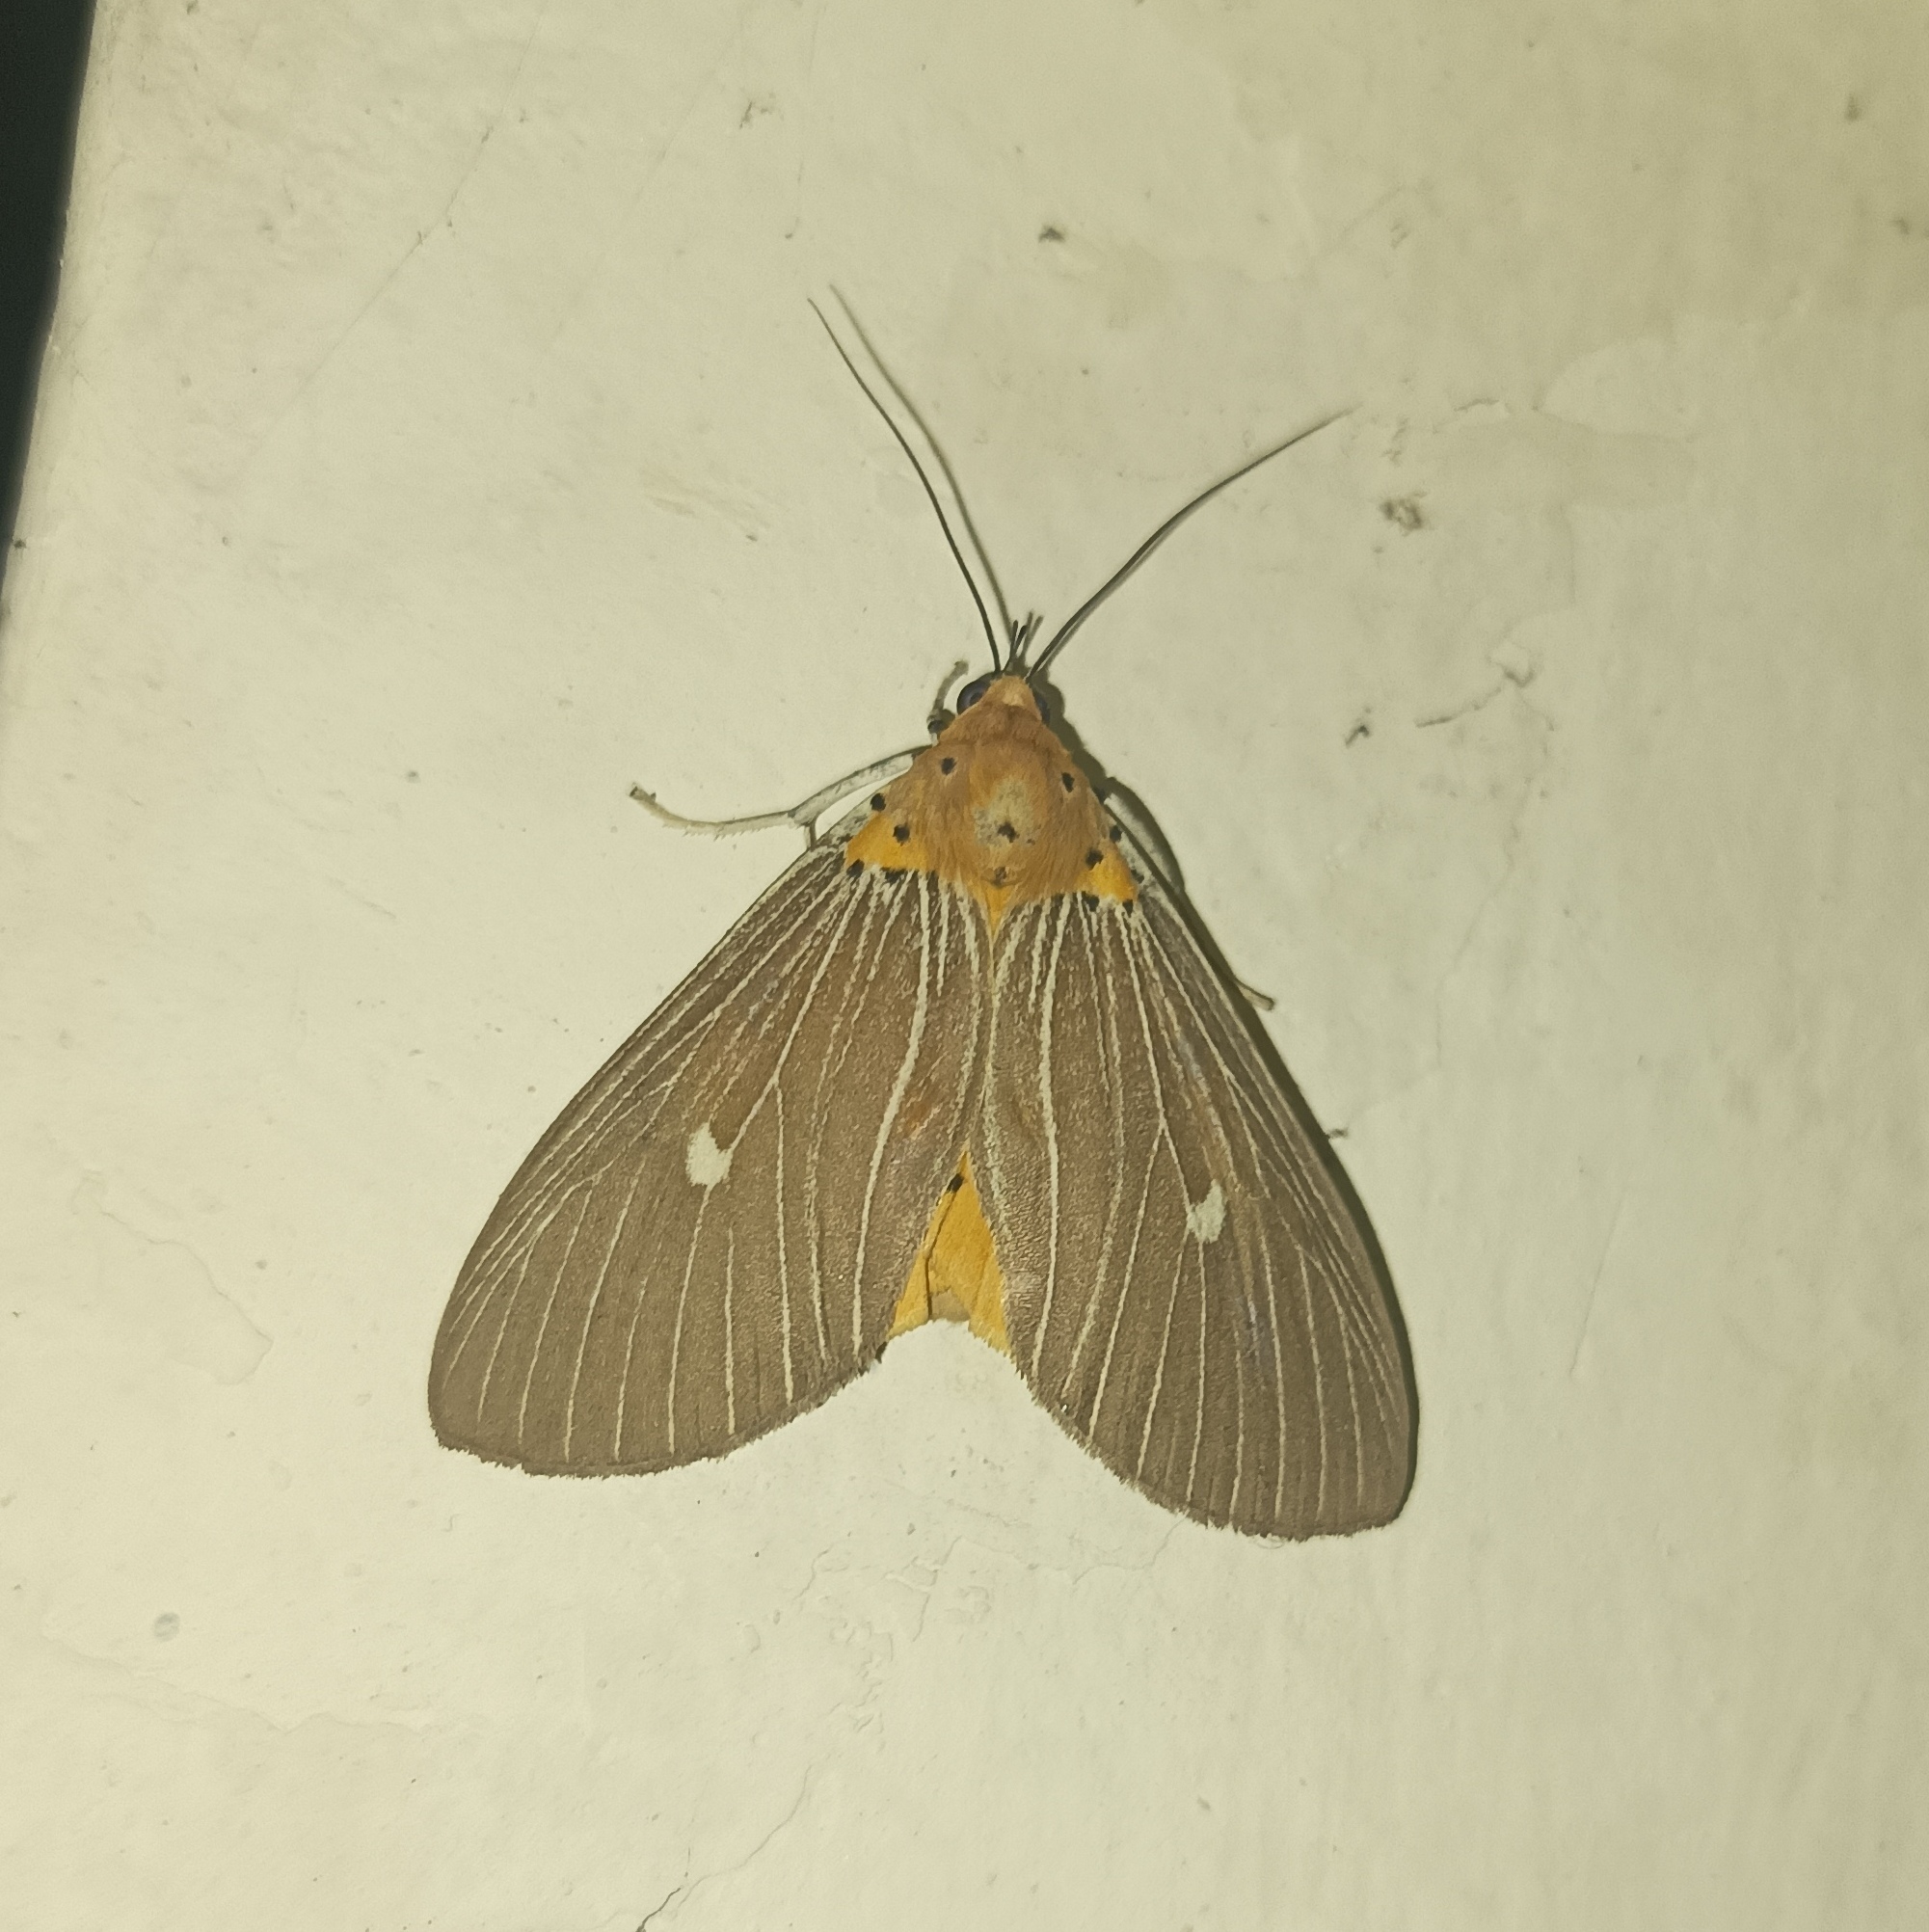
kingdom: Animalia
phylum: Arthropoda
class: Insecta
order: Lepidoptera
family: Erebidae
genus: Asota
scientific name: Asota caricae
